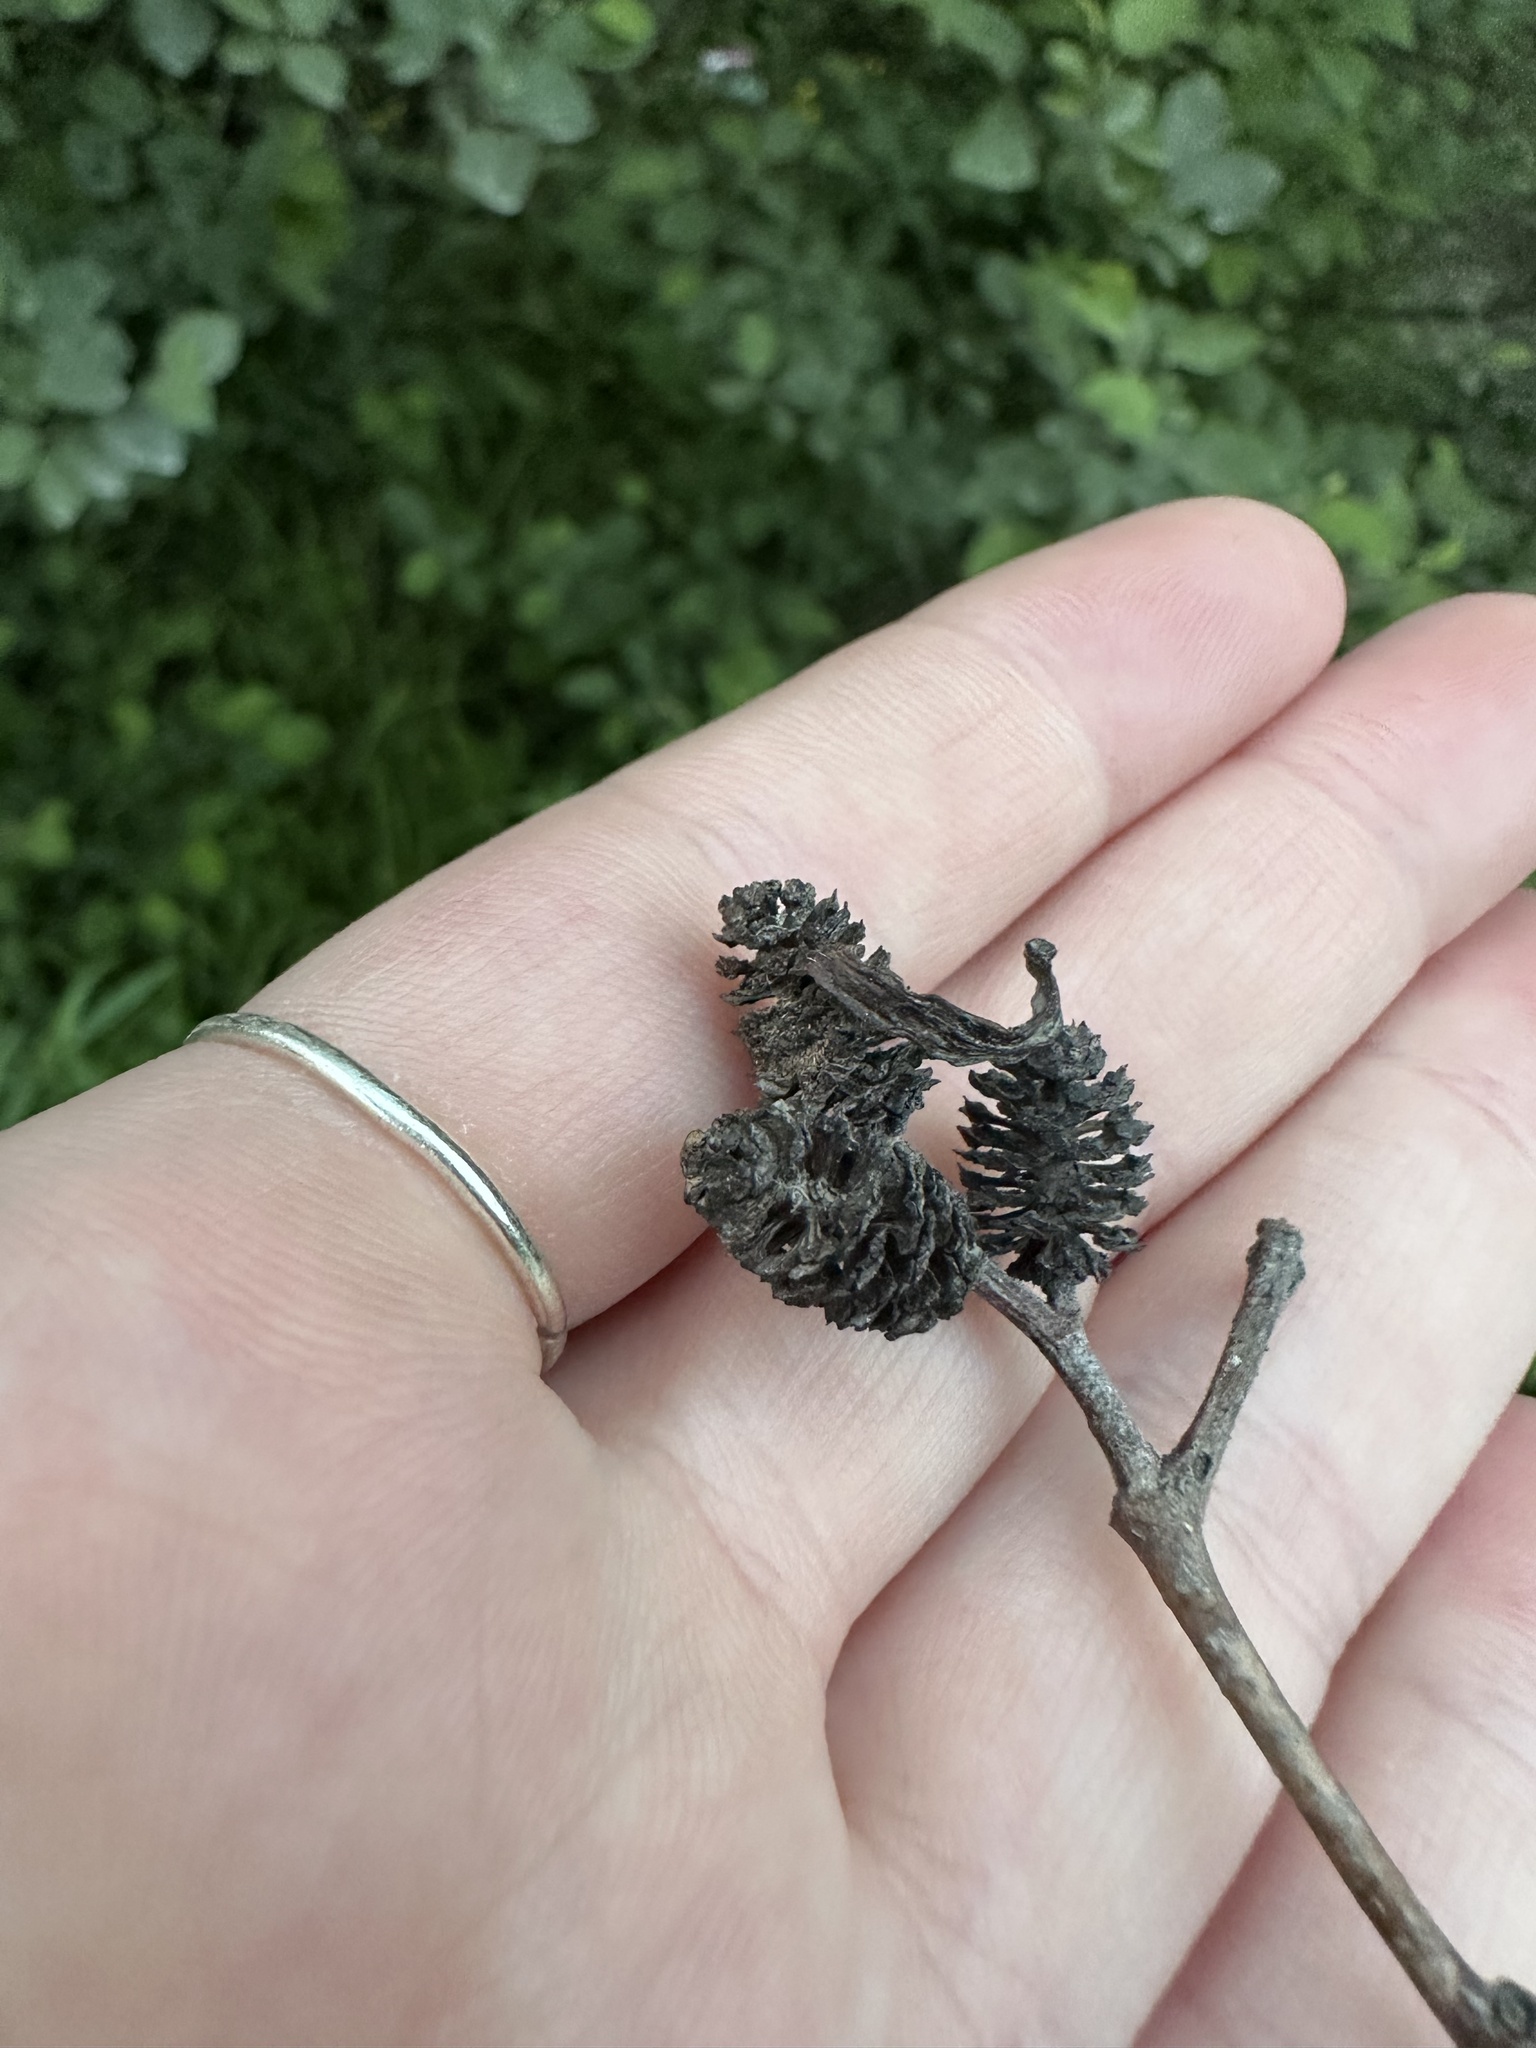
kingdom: Fungi
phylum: Ascomycota
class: Taphrinomycetes
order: Taphrinales
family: Taphrinaceae
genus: Taphrina
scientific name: Taphrina robinsoniana
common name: Eastern american alder tongue gall fungus
